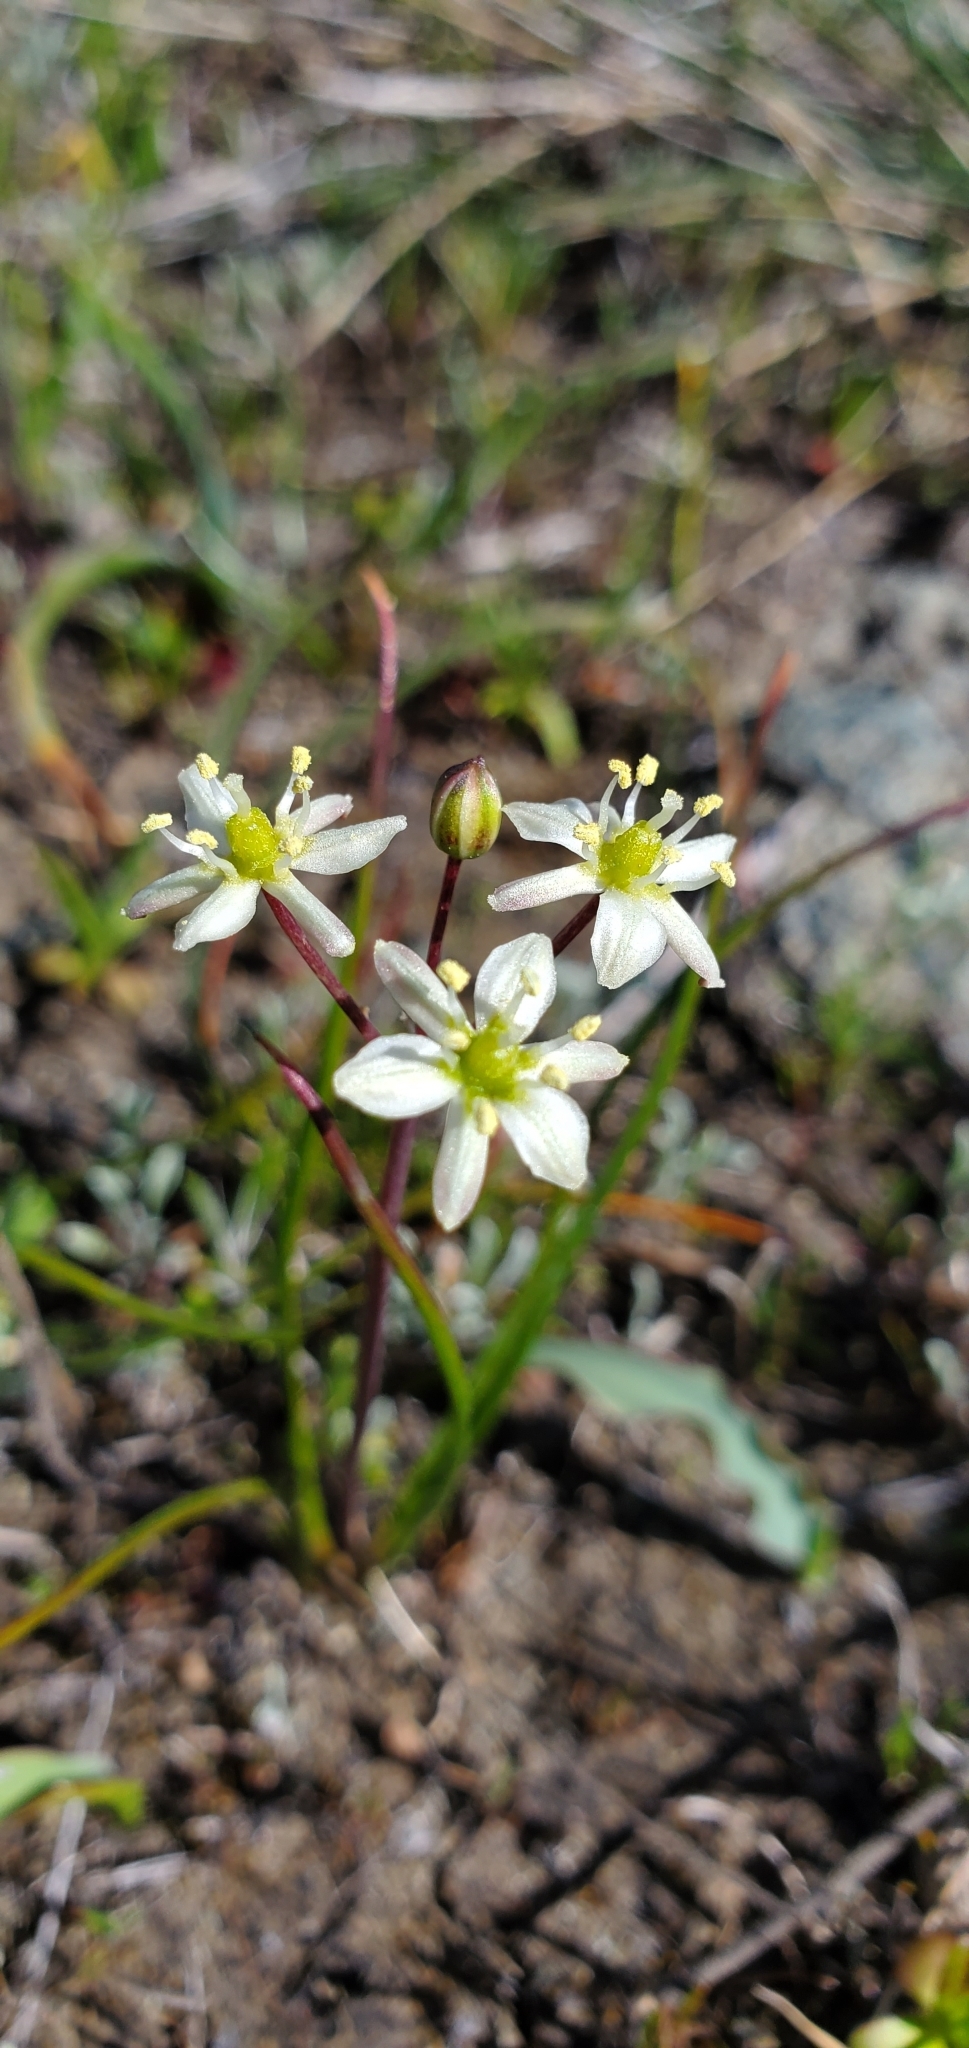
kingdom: Plantae
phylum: Tracheophyta
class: Liliopsida
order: Asparagales
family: Asparagaceae
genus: Muilla
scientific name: Muilla maritima
